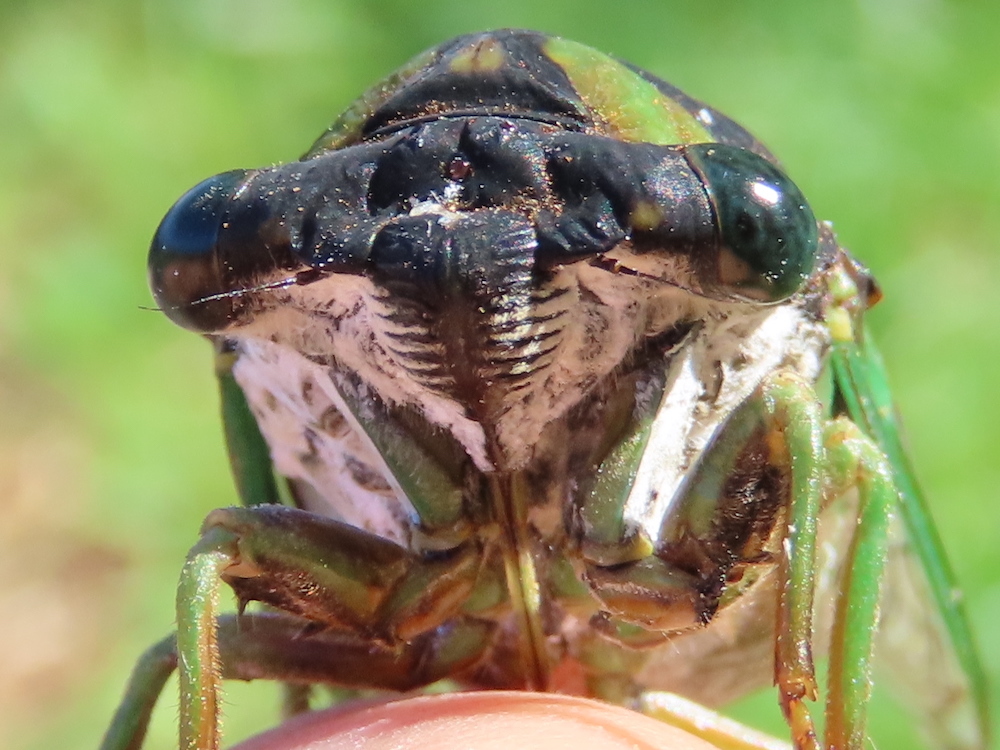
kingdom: Animalia
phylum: Arthropoda
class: Insecta
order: Hemiptera
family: Cicadidae
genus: Neotibicen
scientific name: Neotibicen tibicen
